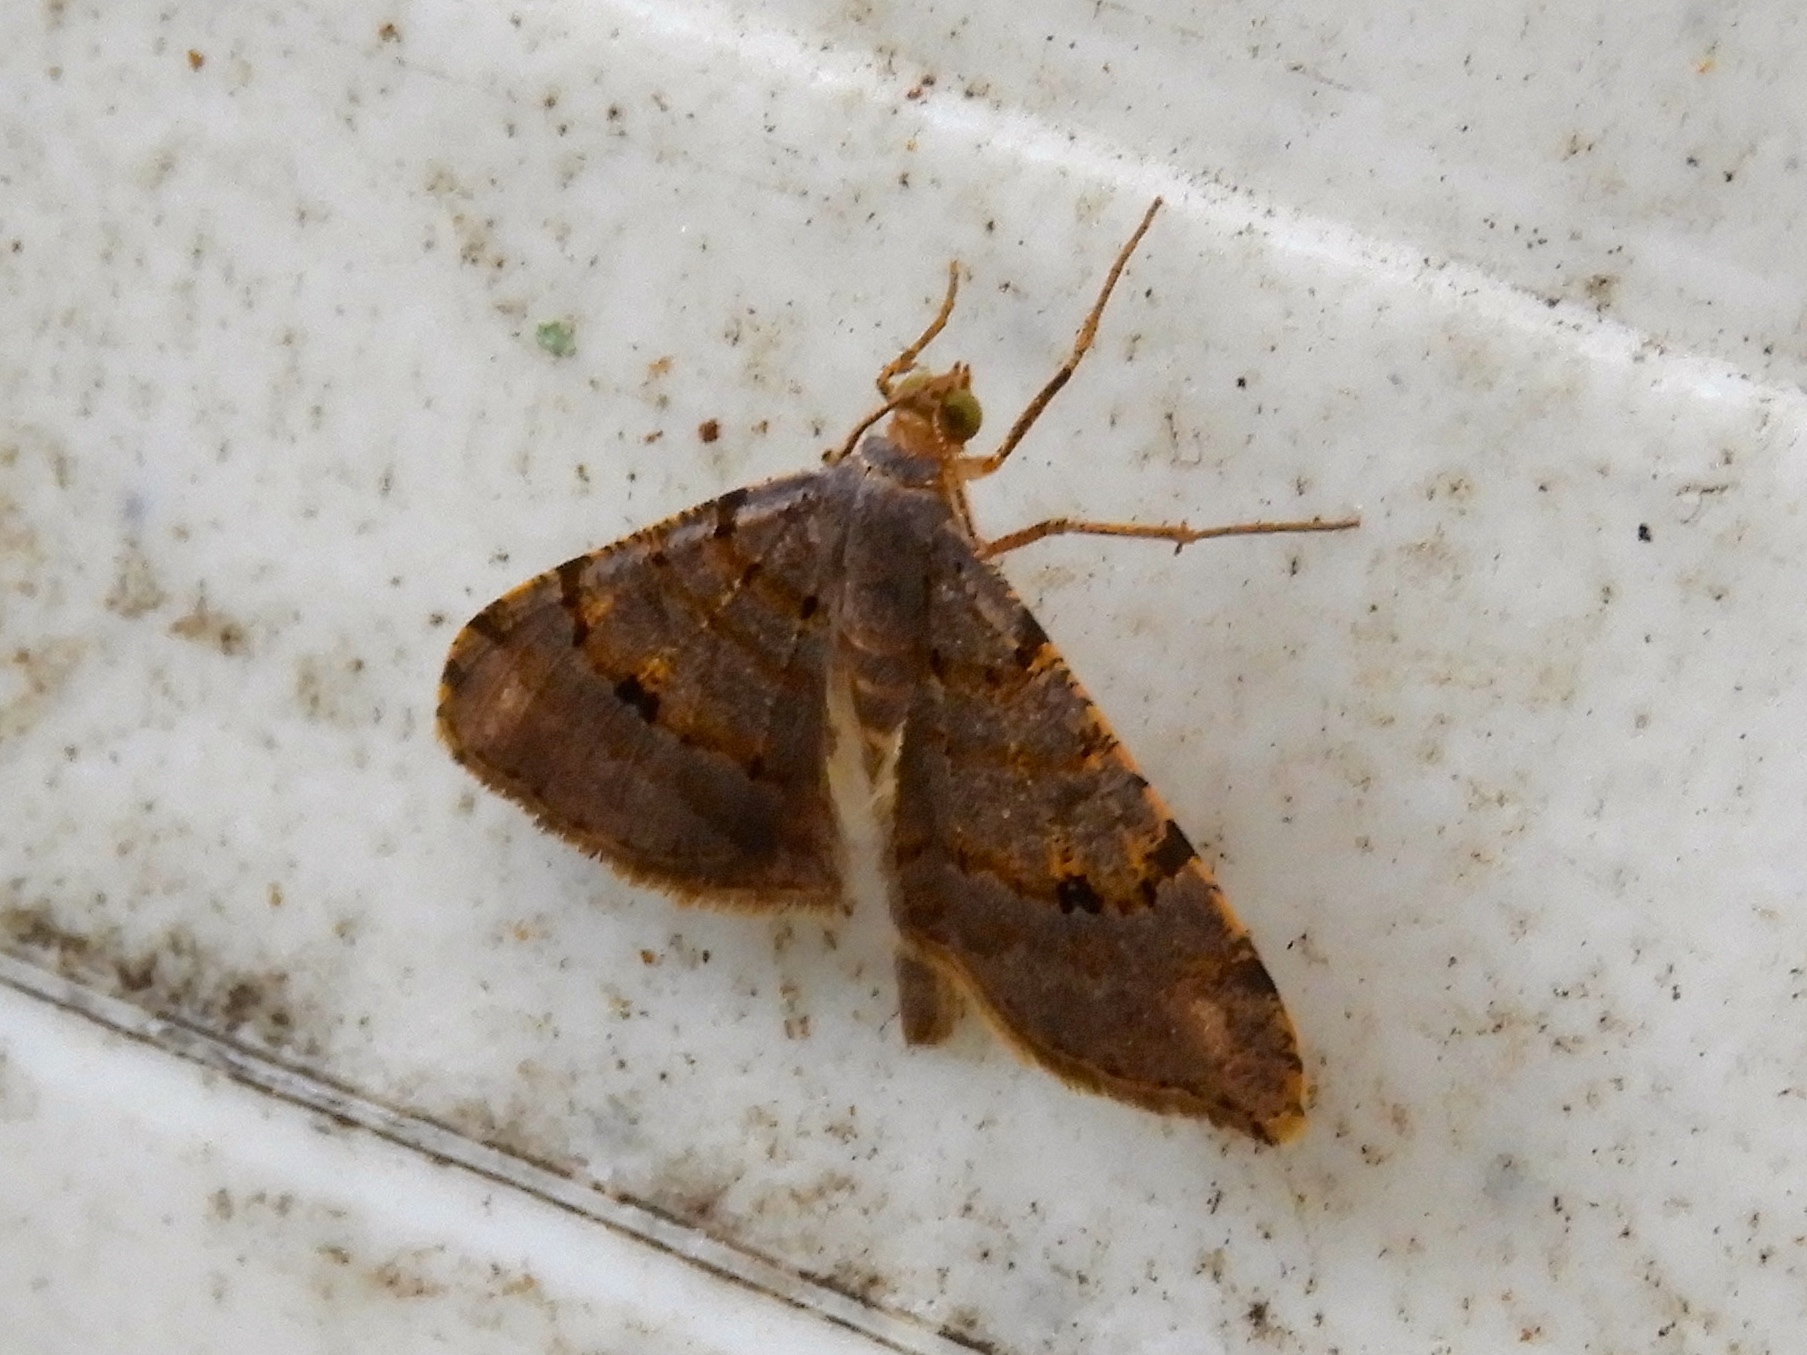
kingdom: Animalia
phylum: Arthropoda
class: Insecta
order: Lepidoptera
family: Geometridae
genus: Macaria
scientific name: Macaria
